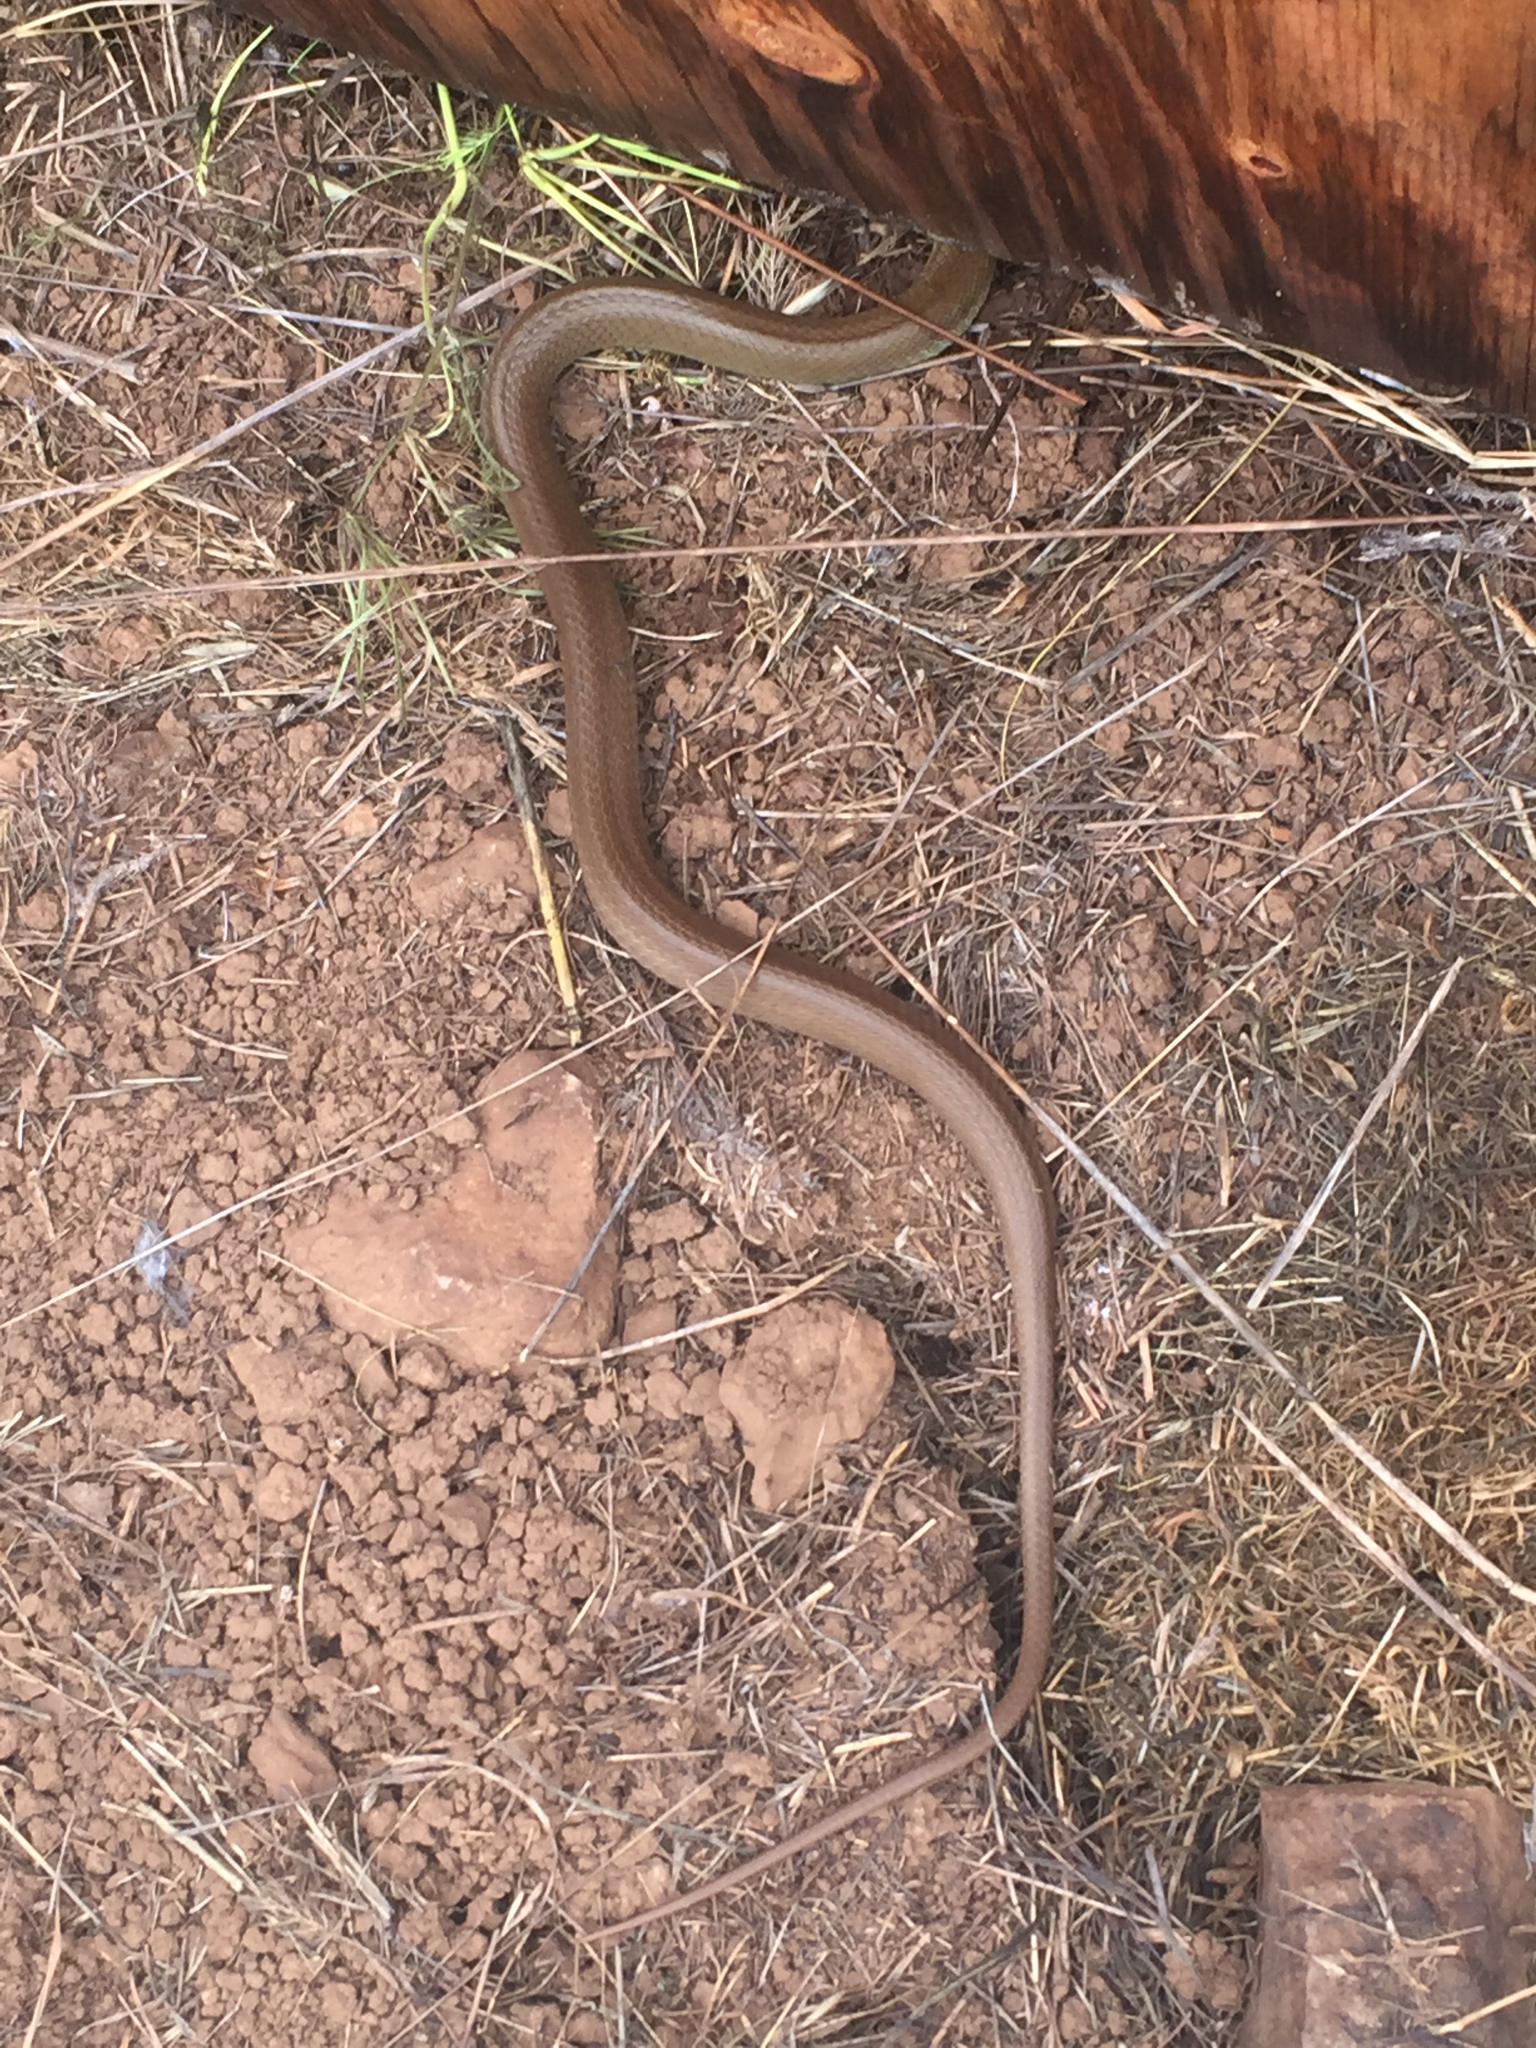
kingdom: Animalia
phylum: Chordata
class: Squamata
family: Colubridae
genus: Coluber
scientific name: Coluber constrictor
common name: Eastern racer
